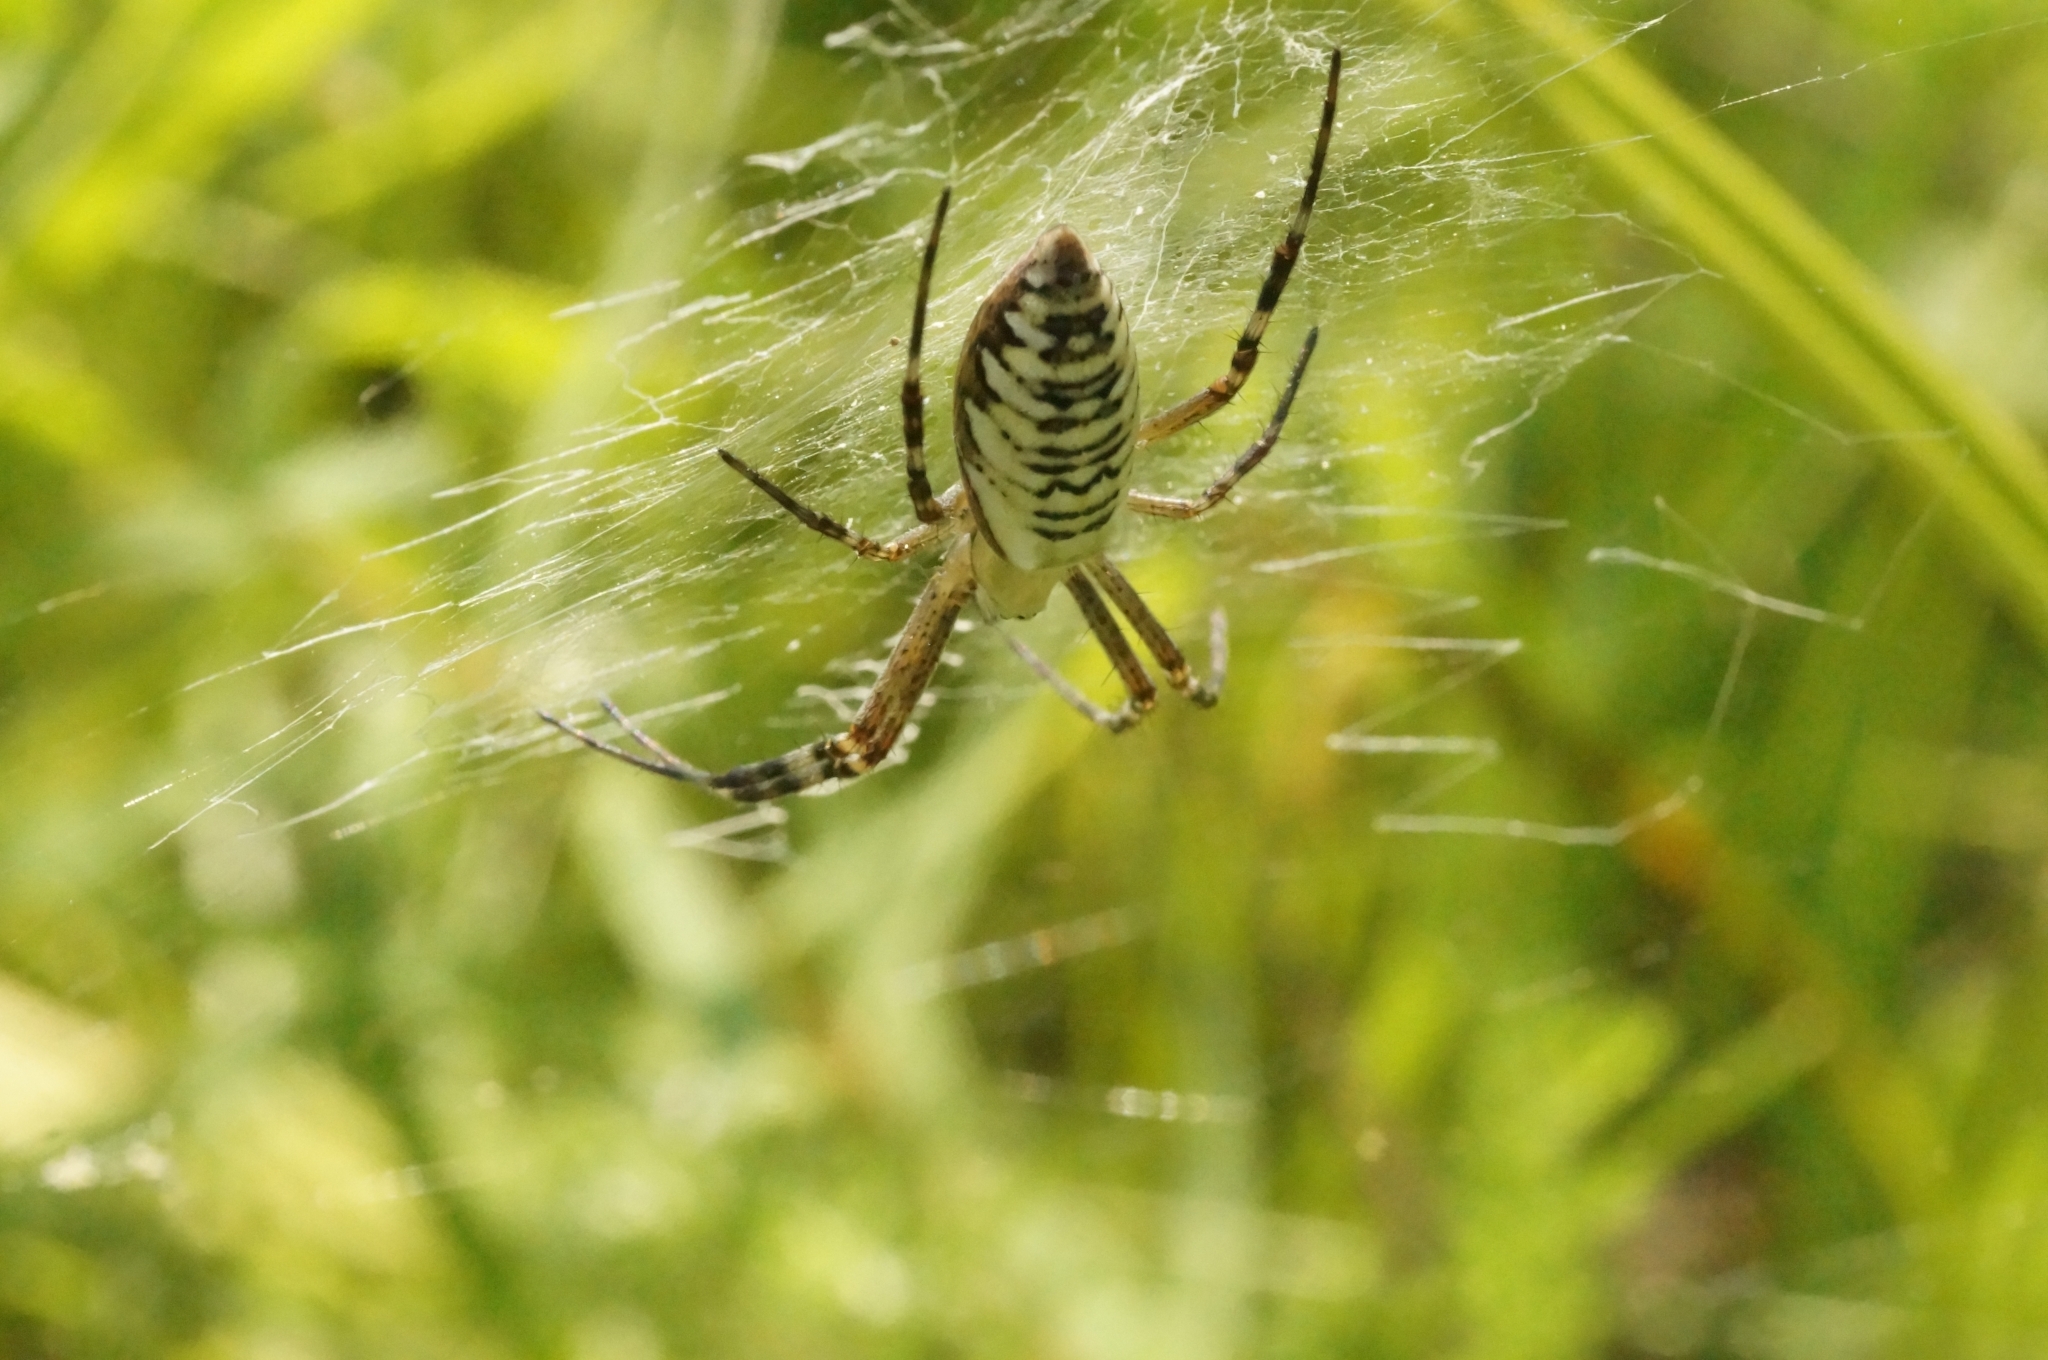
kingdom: Animalia
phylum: Arthropoda
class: Arachnida
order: Araneae
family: Araneidae
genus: Argiope
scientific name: Argiope bruennichi
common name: Wasp spider
